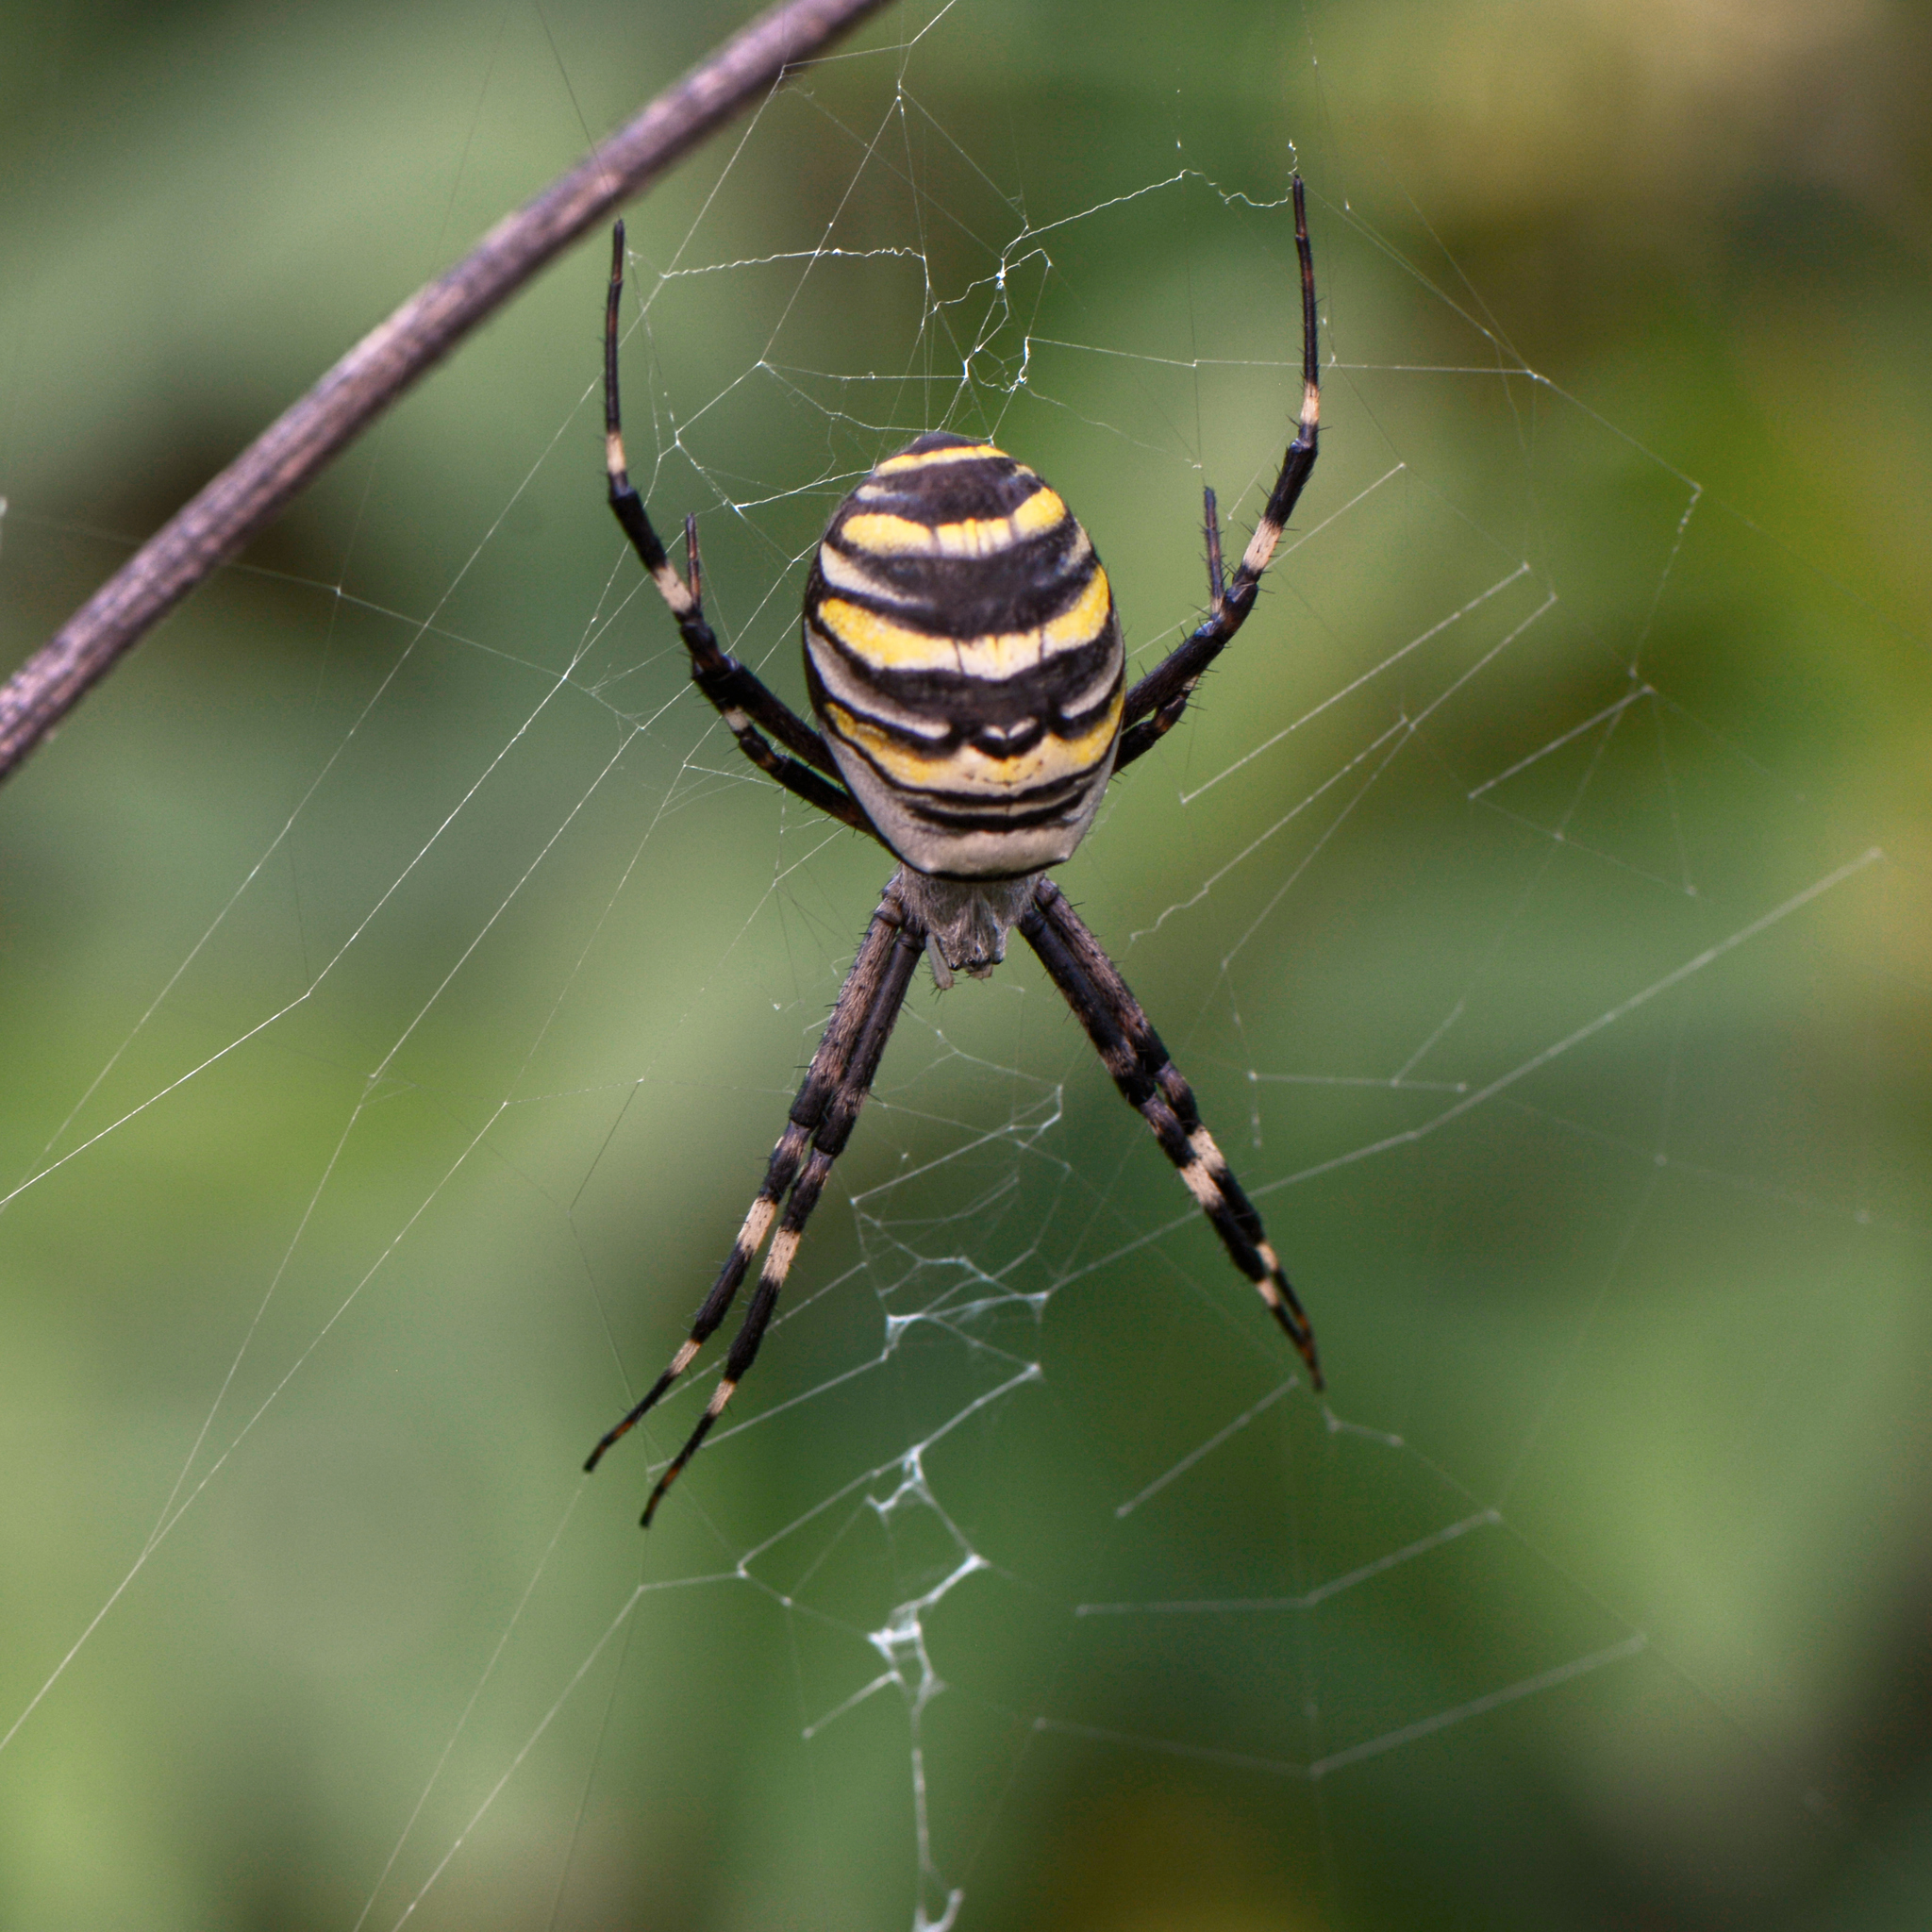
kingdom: Animalia
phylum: Arthropoda
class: Arachnida
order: Araneae
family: Araneidae
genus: Argiope
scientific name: Argiope bruennichi
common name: Wasp spider
